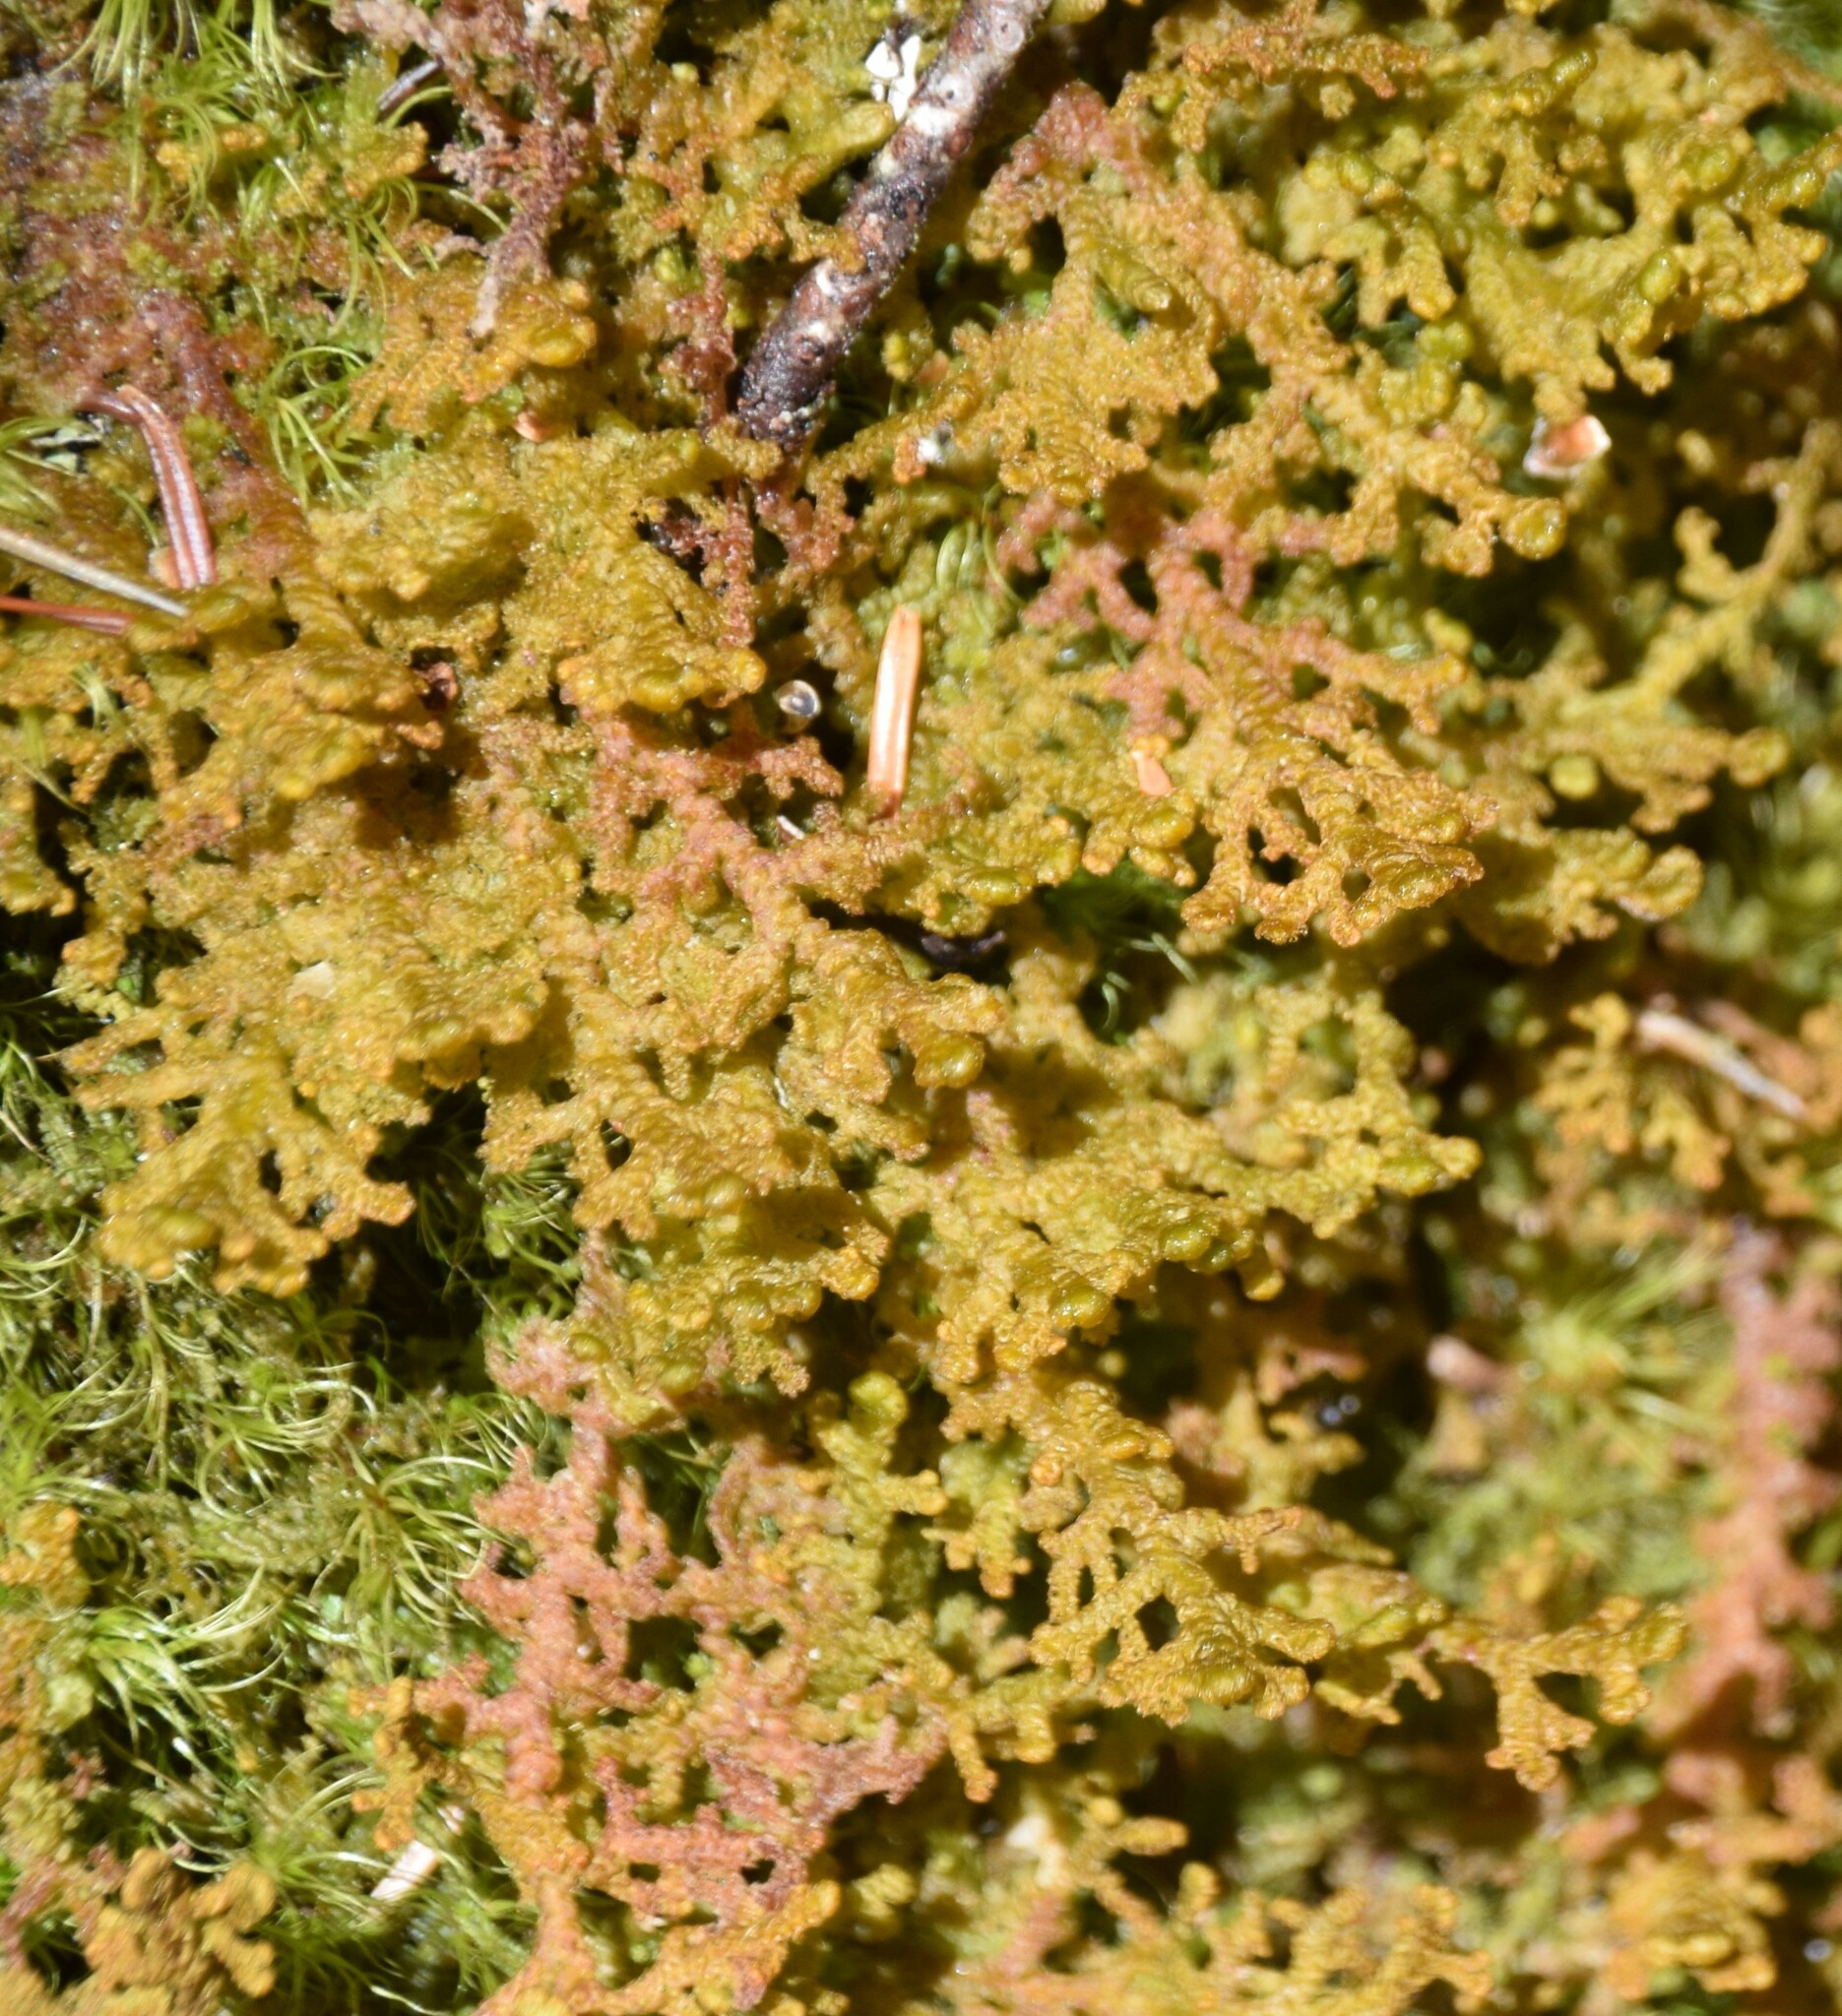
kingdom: Plantae
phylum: Marchantiophyta
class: Jungermanniopsida
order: Ptilidiales
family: Ptilidiaceae
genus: Ptilidium
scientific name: Ptilidium ciliare
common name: Ciliate fringewort
